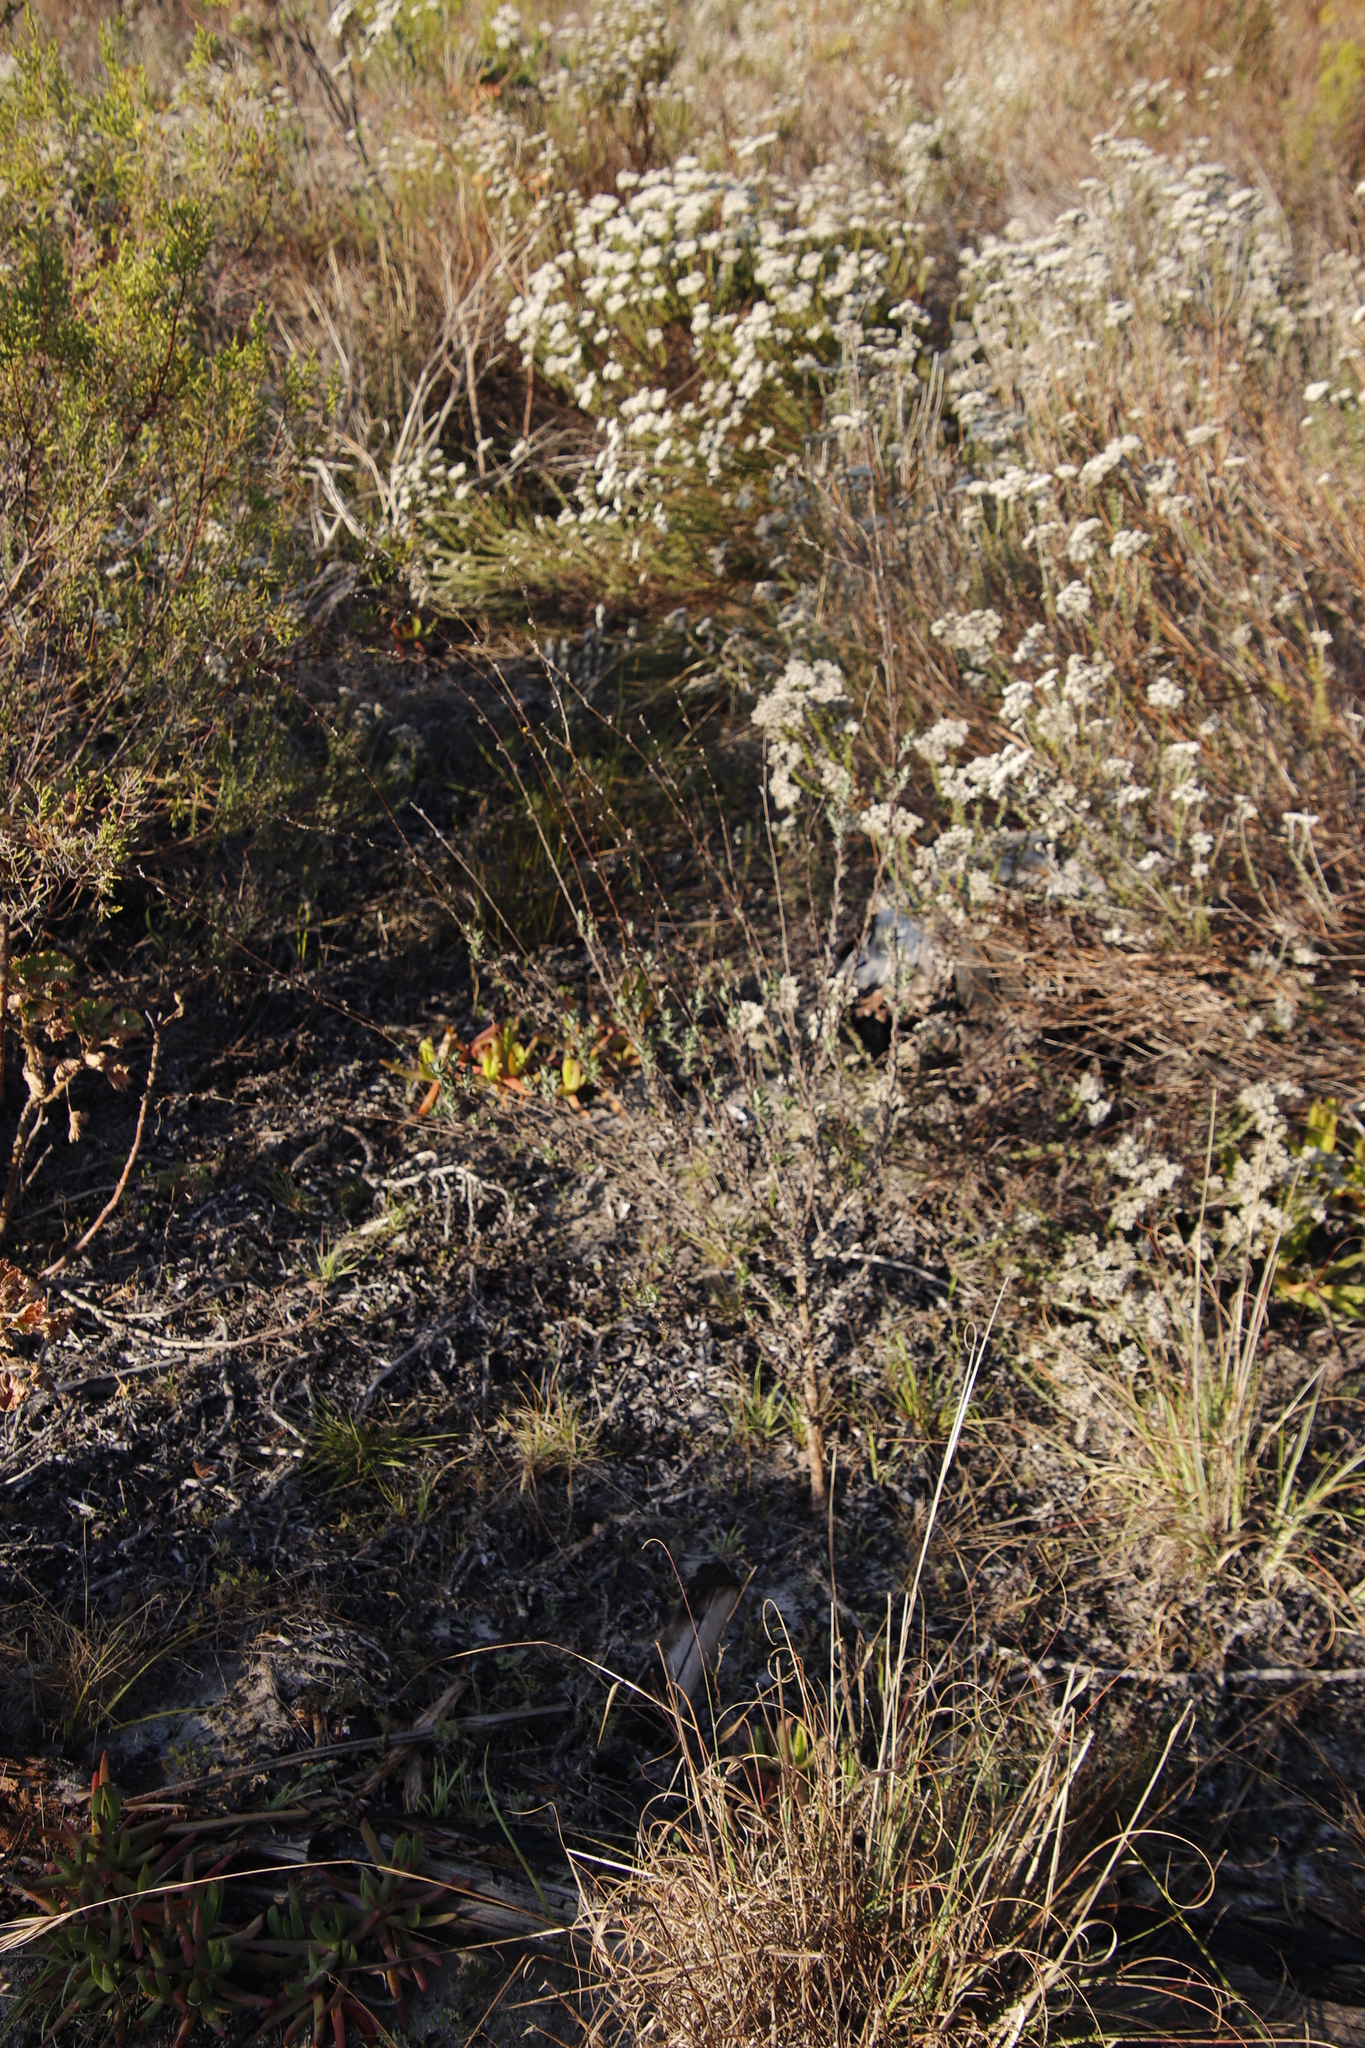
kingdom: Plantae
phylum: Tracheophyta
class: Magnoliopsida
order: Caryophyllales
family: Aizoaceae
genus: Carpobrotus
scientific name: Carpobrotus edulis
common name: Hottentot-fig
